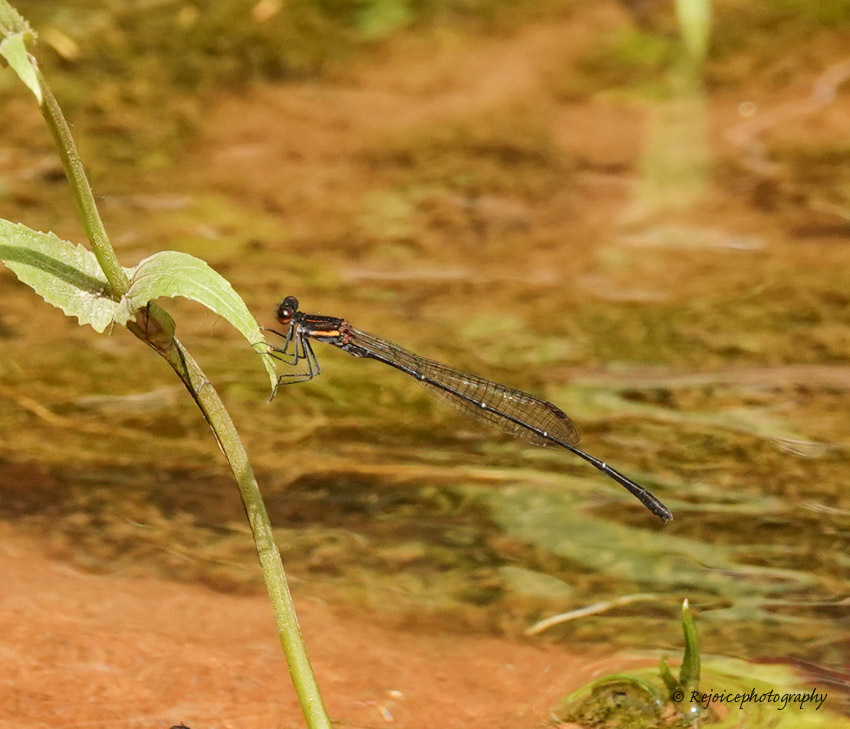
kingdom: Animalia
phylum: Arthropoda
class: Insecta
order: Odonata
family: Platycnemididae
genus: Prodasineura
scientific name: Prodasineura verticalis
